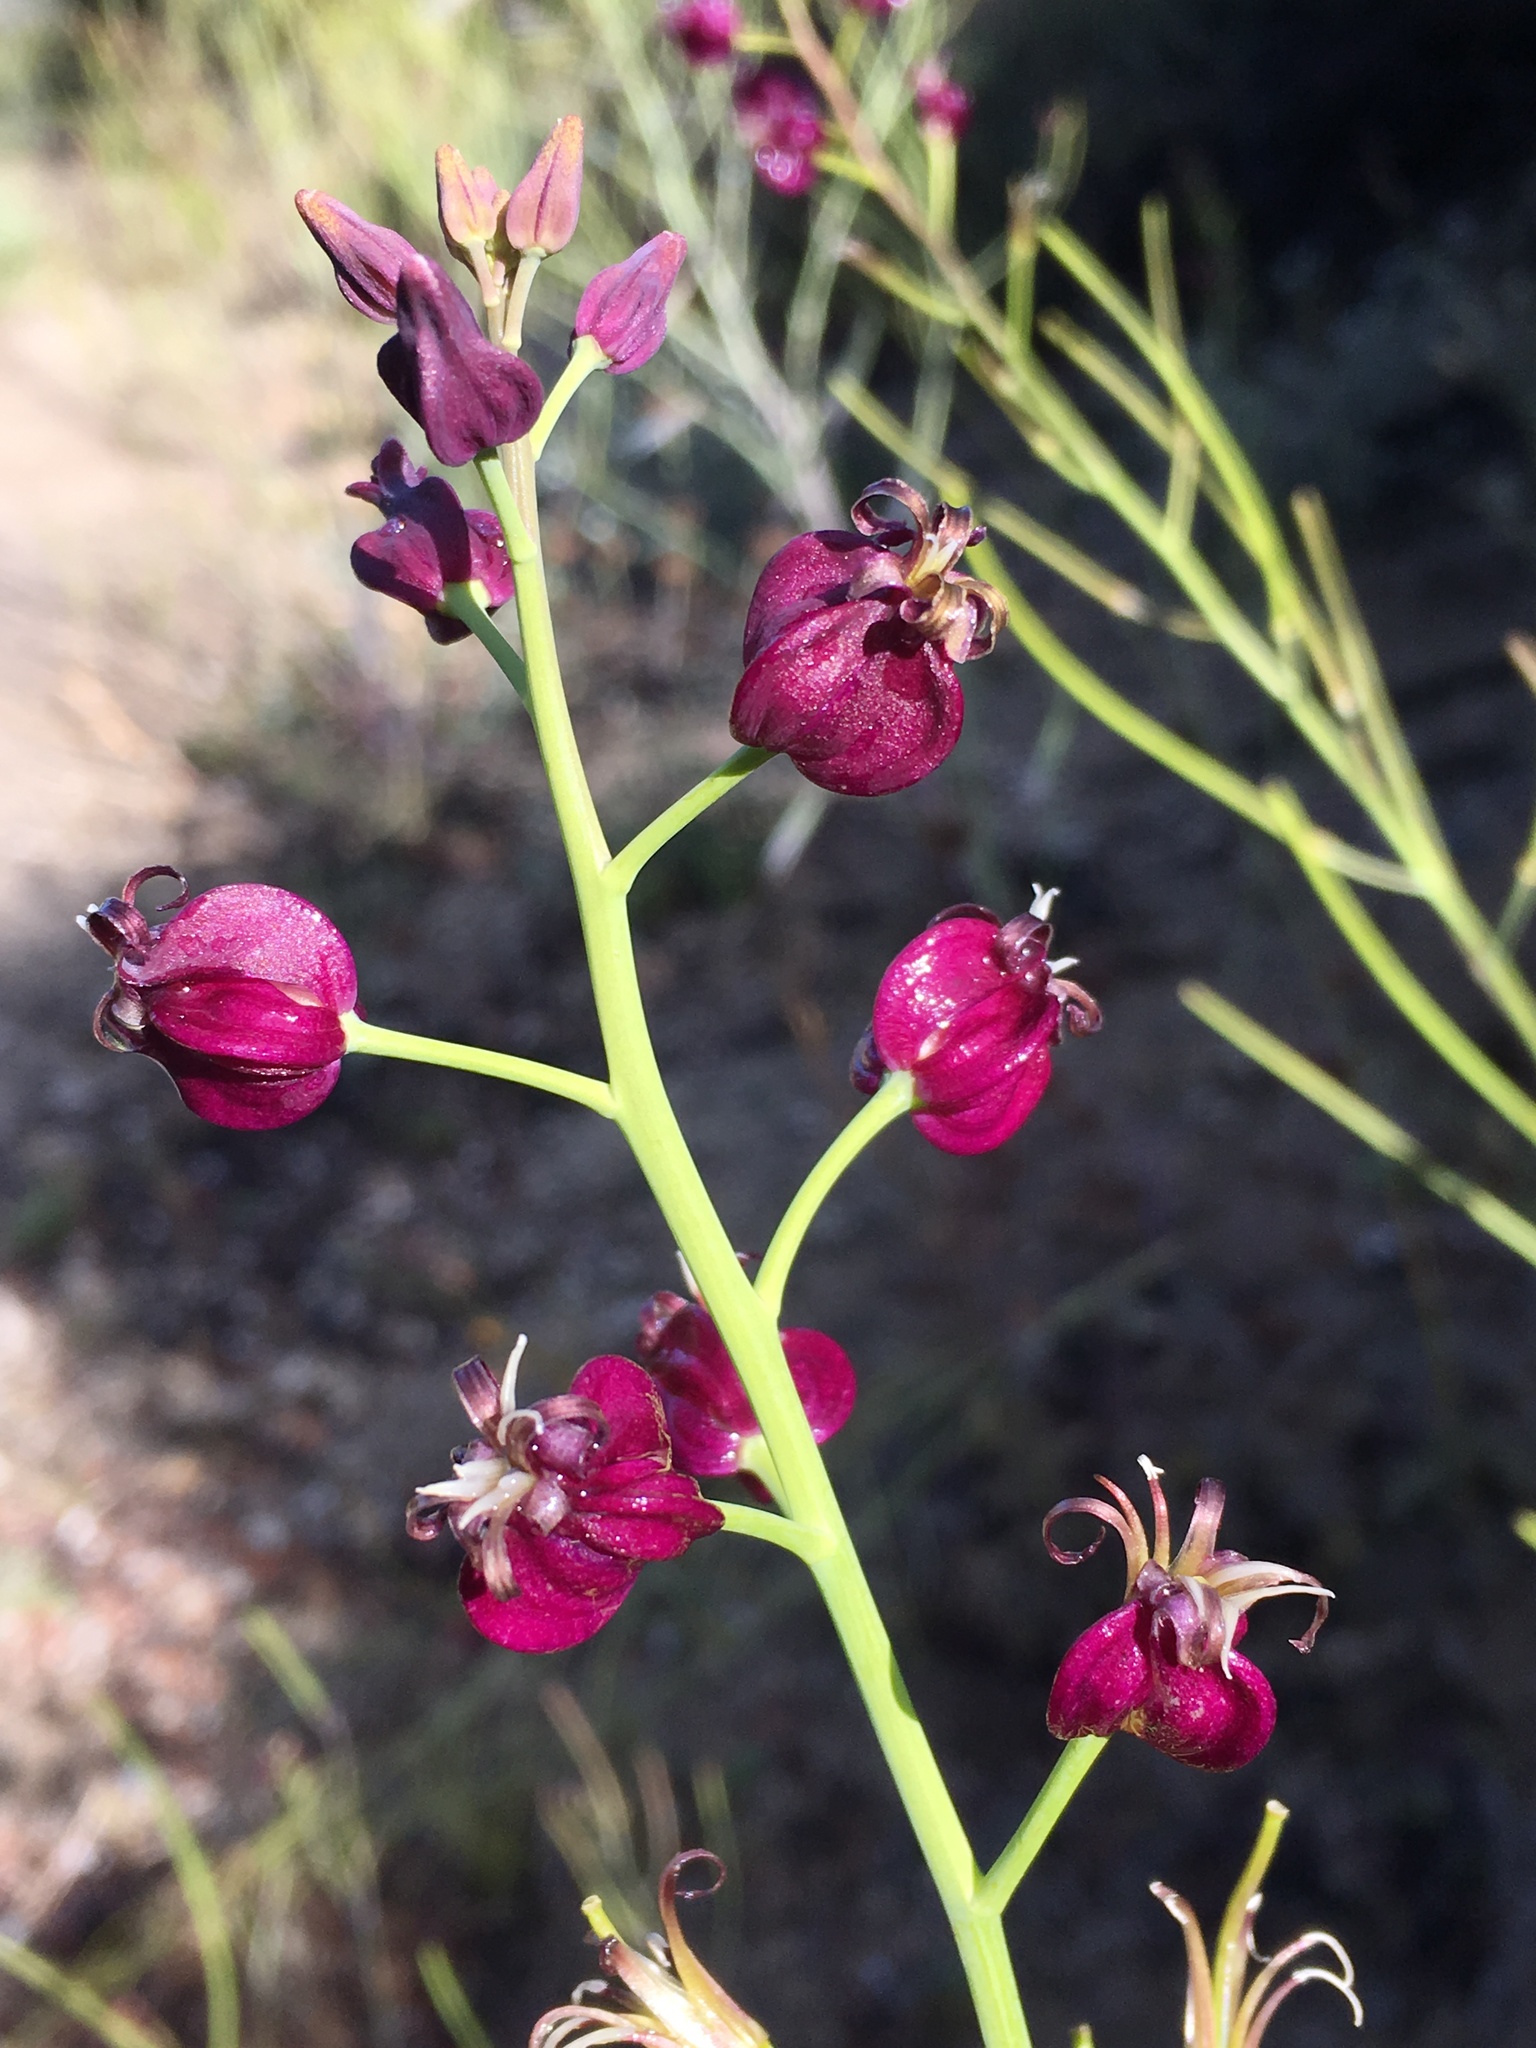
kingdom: Plantae
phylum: Tracheophyta
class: Magnoliopsida
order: Brassicales
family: Brassicaceae
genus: Streptanthus
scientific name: Streptanthus amplexicaulis
